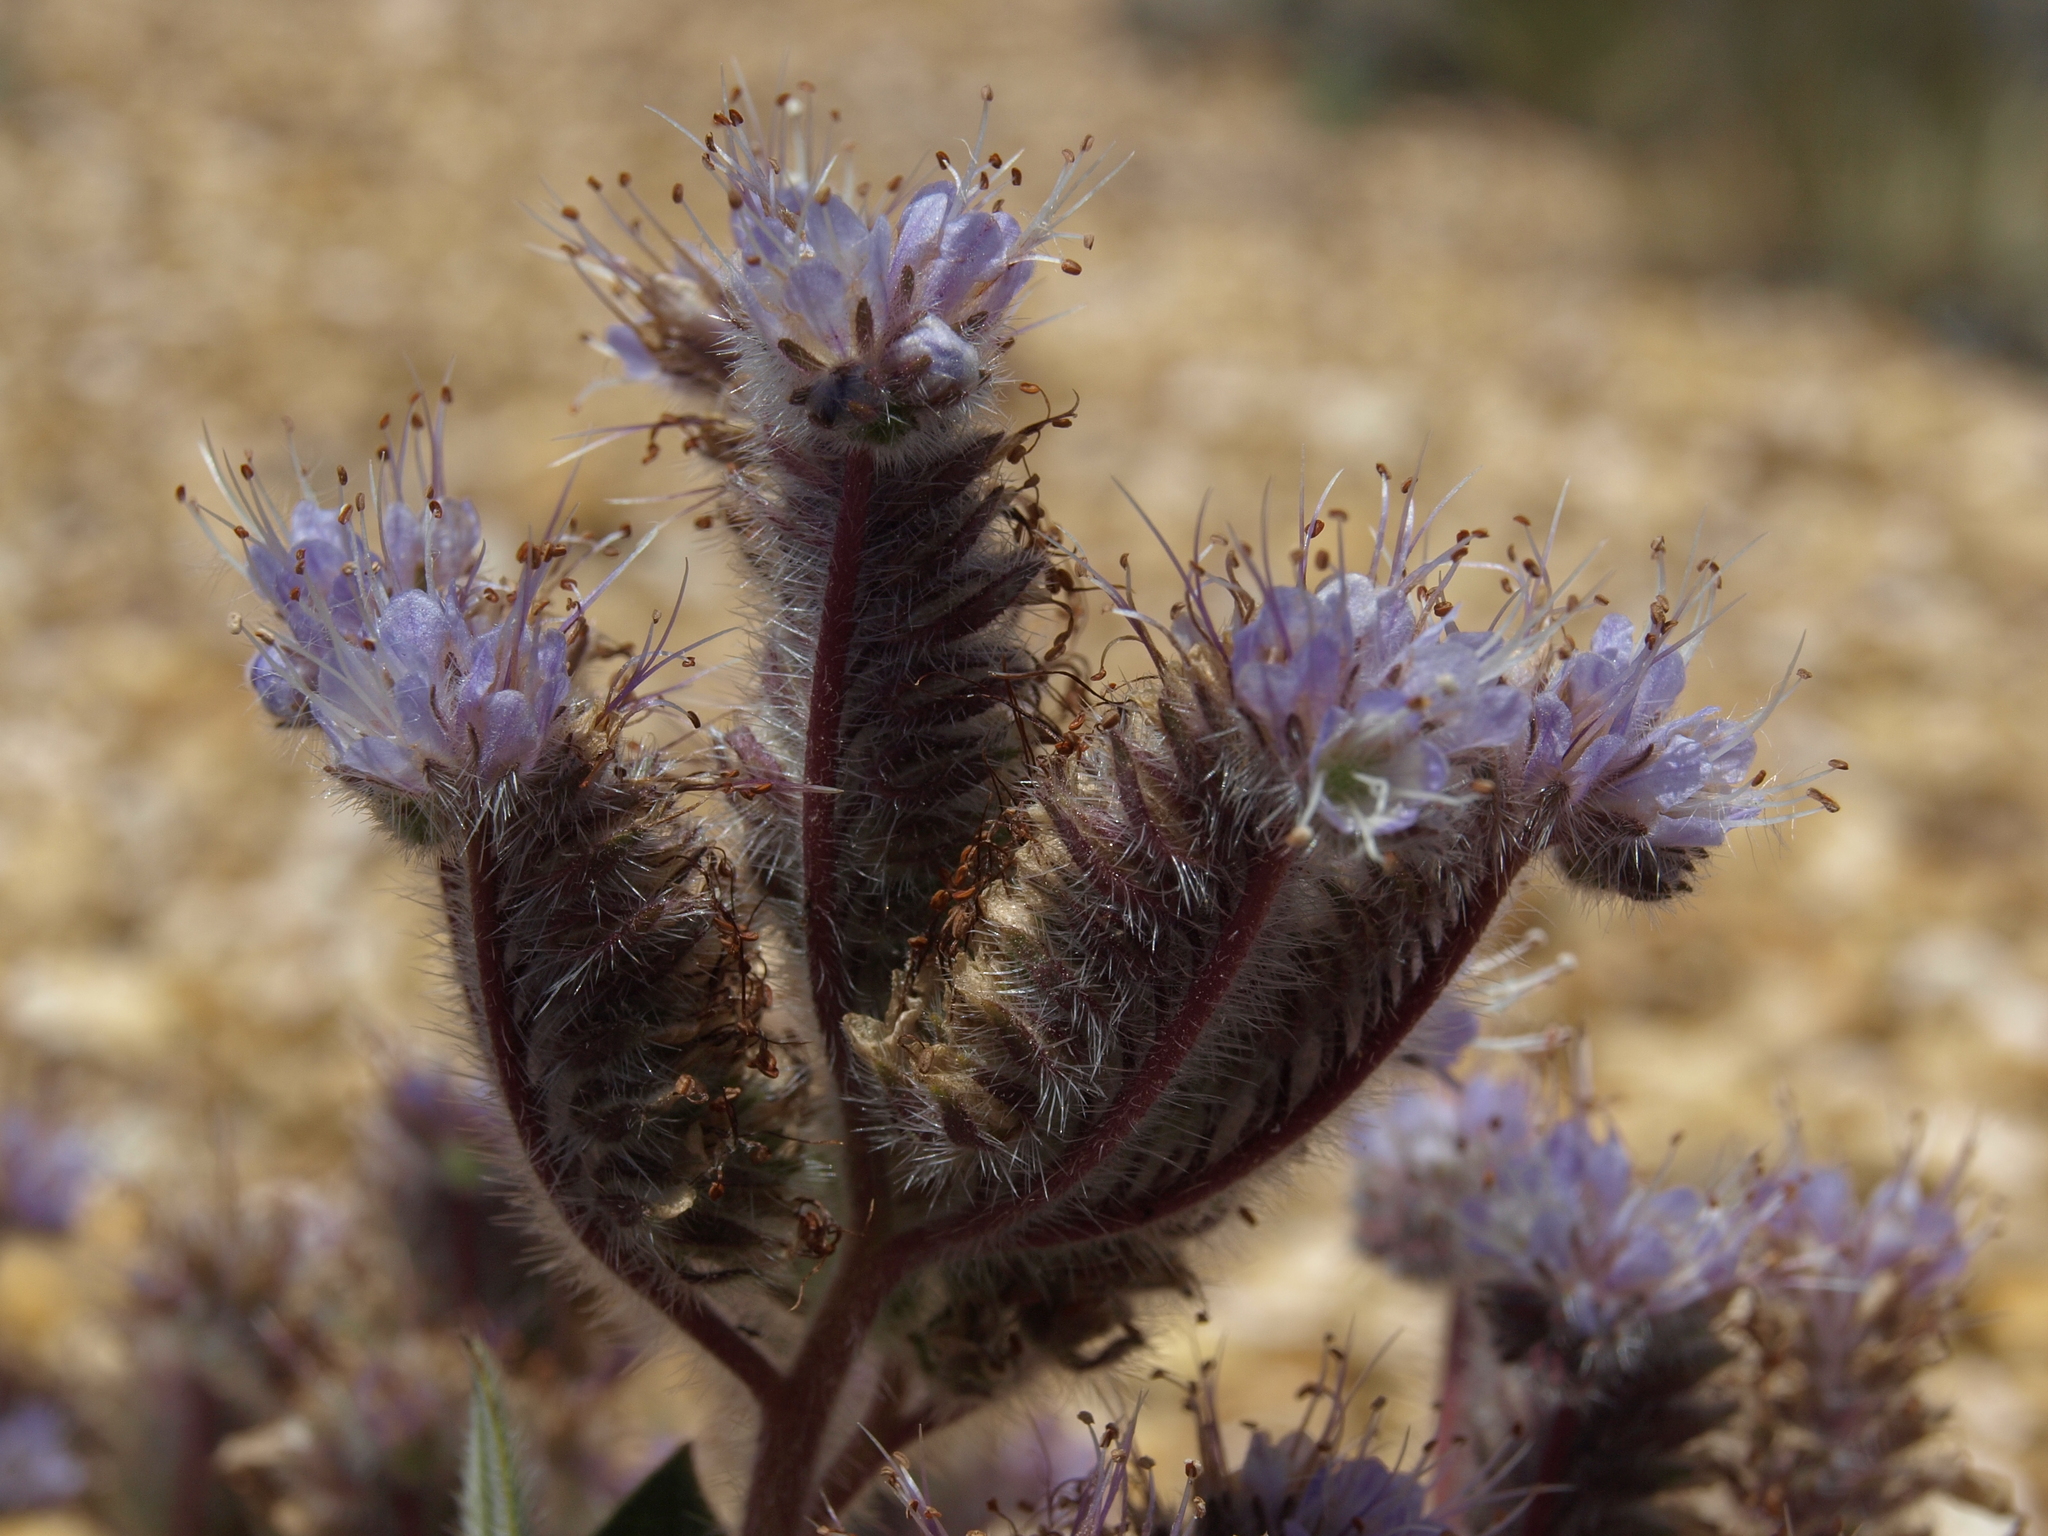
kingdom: Plantae
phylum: Tracheophyta
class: Magnoliopsida
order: Boraginales
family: Hydrophyllaceae
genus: Phacelia
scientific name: Phacelia hastata
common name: Silver-leaved phacelia
